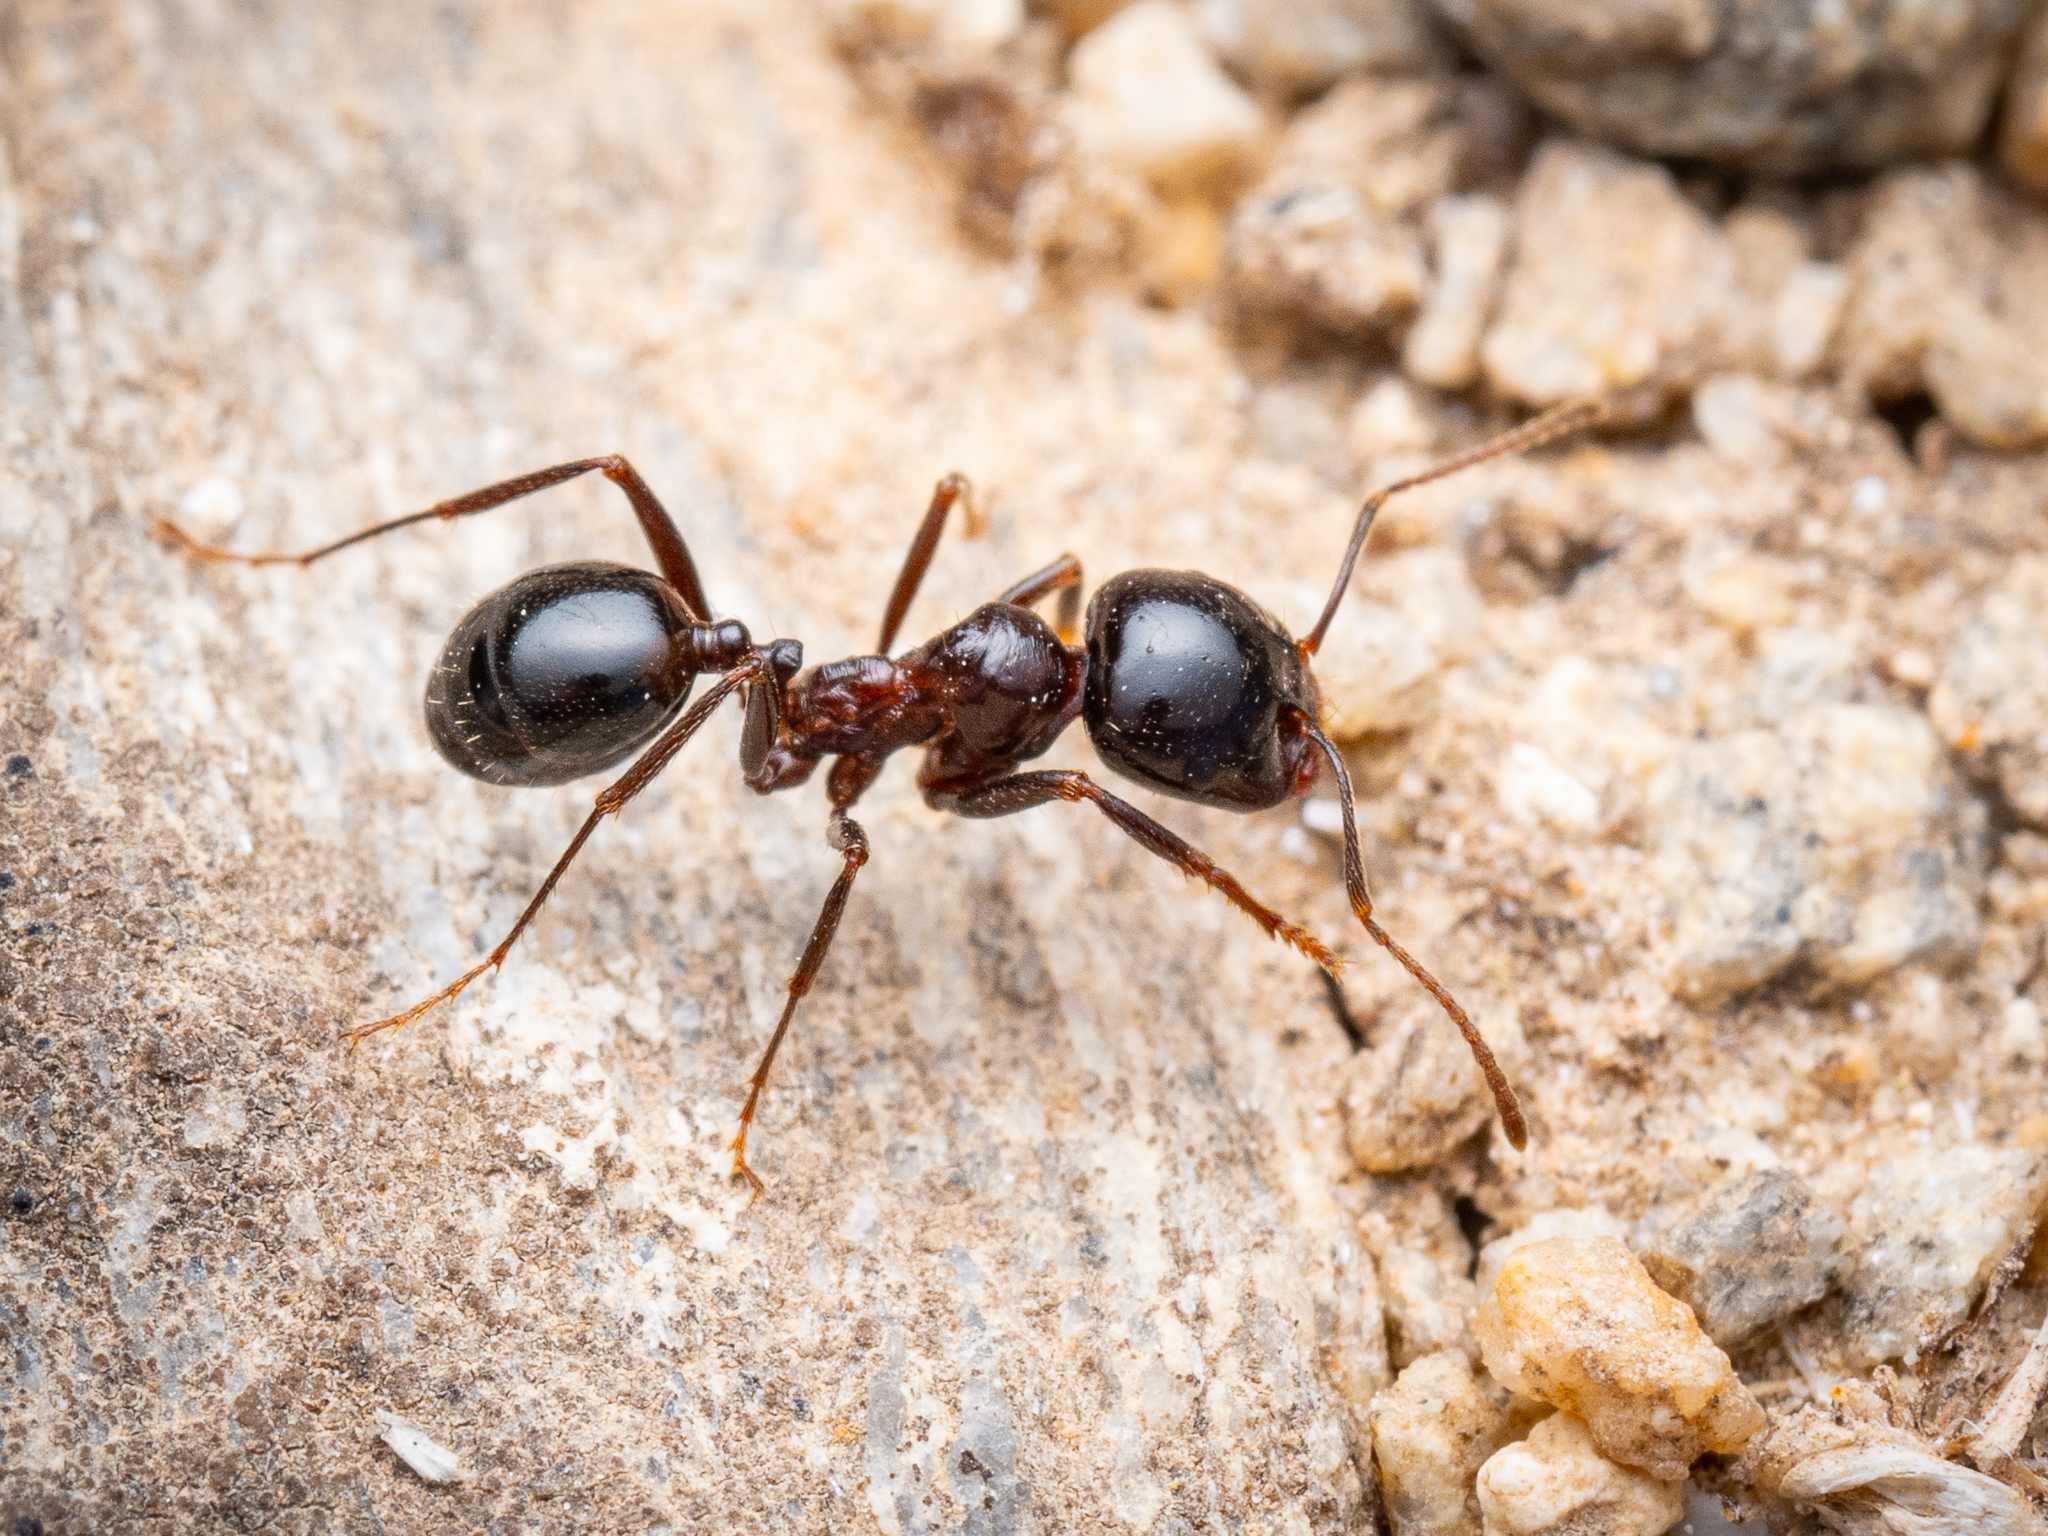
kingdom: Animalia
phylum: Arthropoda
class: Insecta
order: Hymenoptera
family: Formicidae
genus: Messor
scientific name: Messor wasmanni
